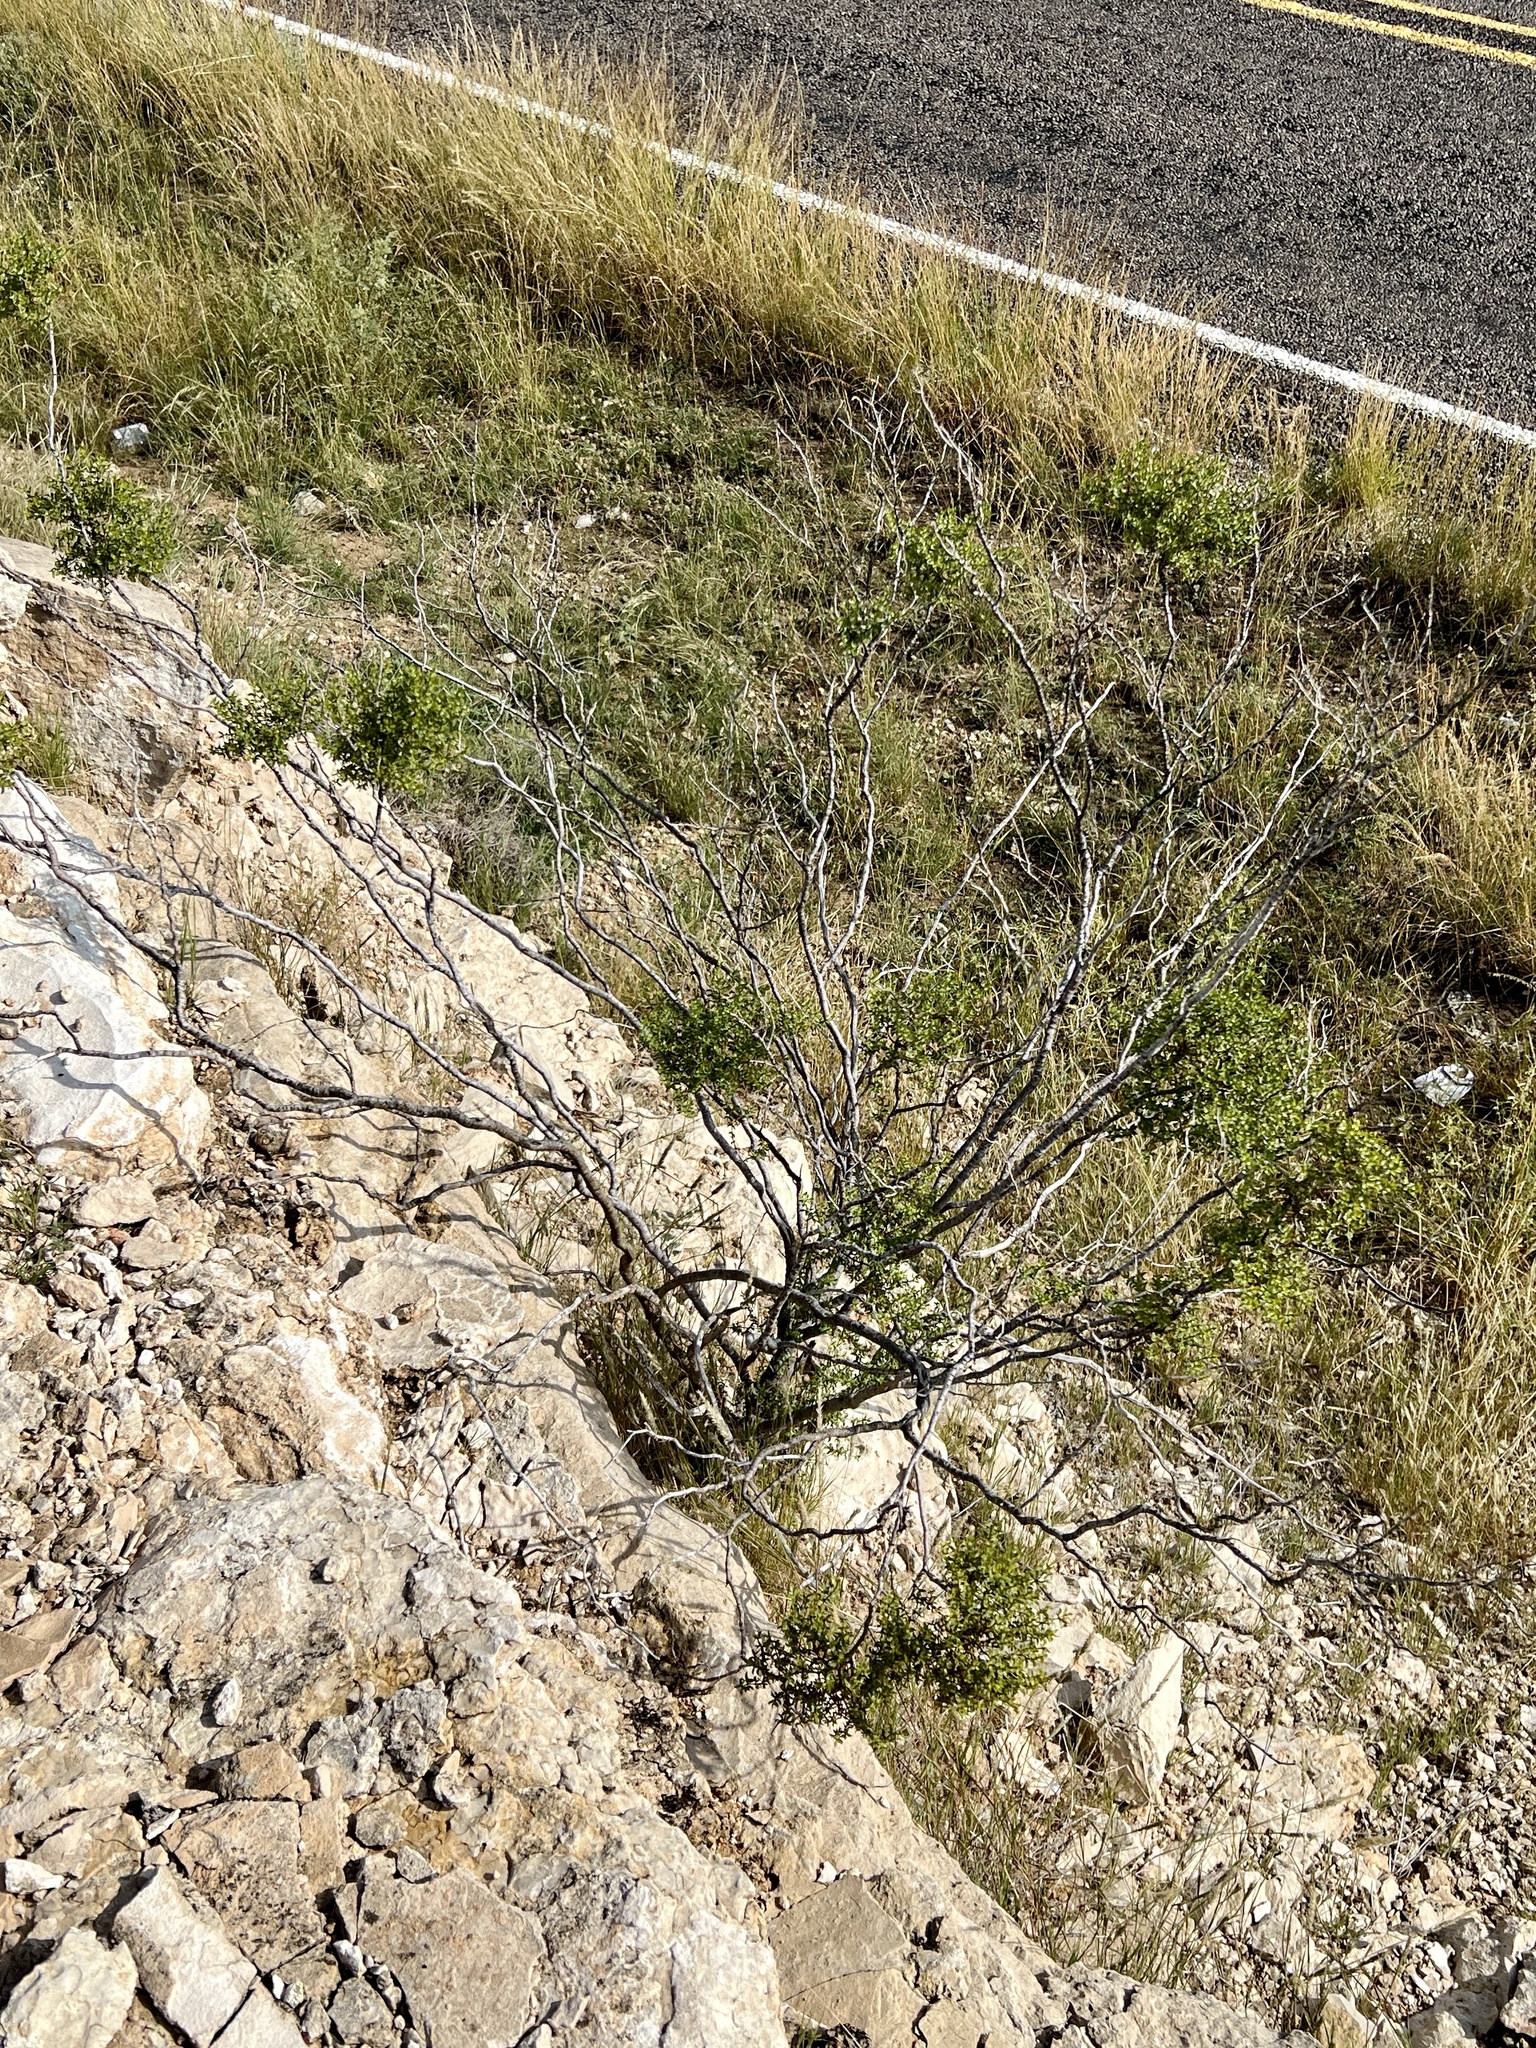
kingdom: Plantae
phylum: Tracheophyta
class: Magnoliopsida
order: Zygophyllales
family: Zygophyllaceae
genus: Larrea
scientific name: Larrea tridentata
